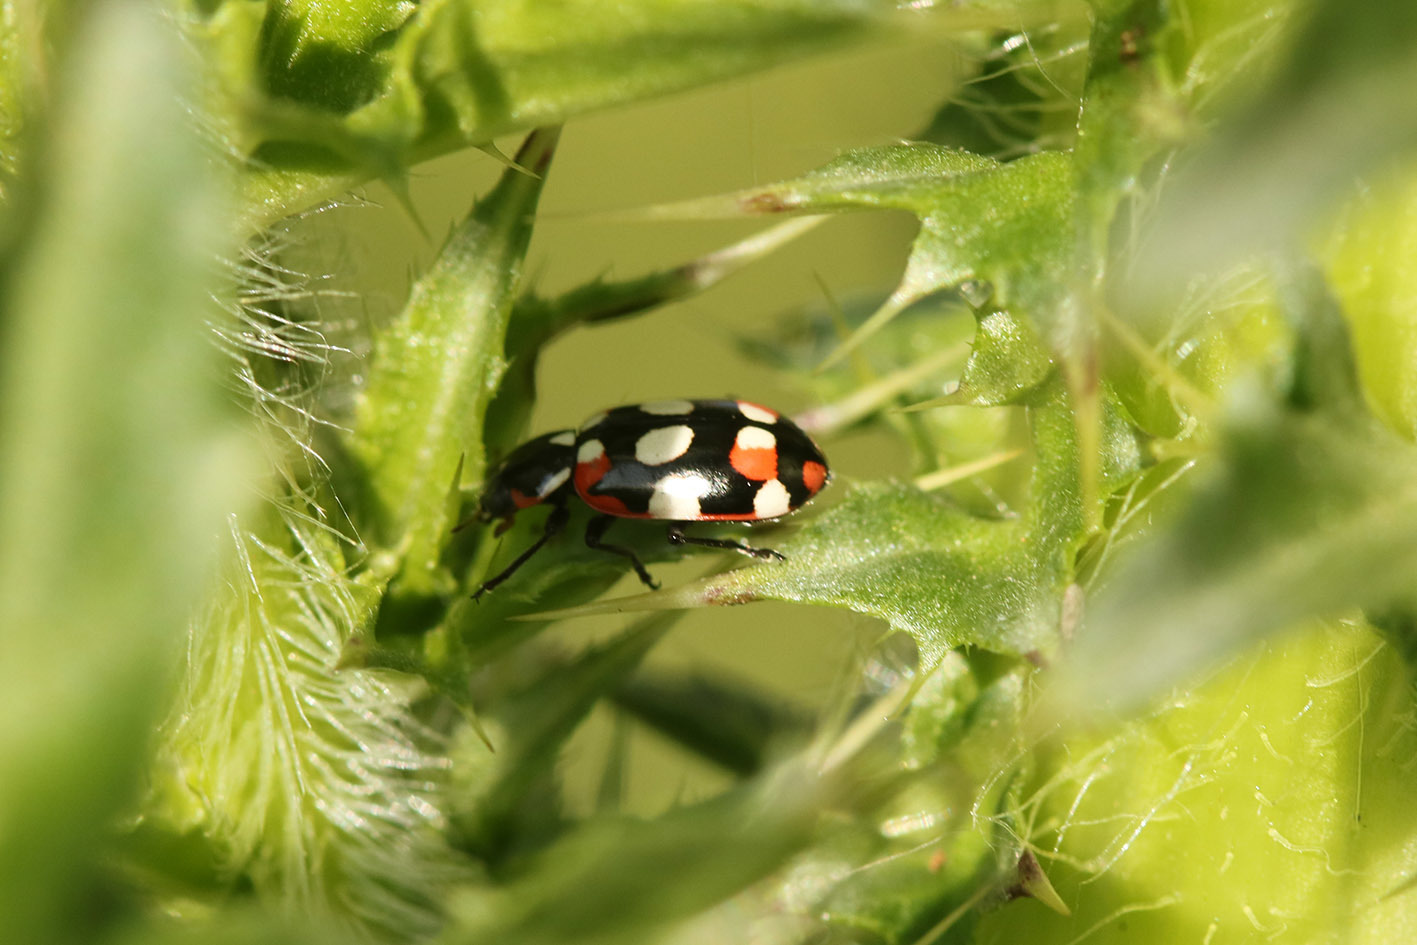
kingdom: Animalia
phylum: Arthropoda
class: Insecta
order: Coleoptera
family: Coccinellidae
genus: Eriopis
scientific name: Eriopis connexa
